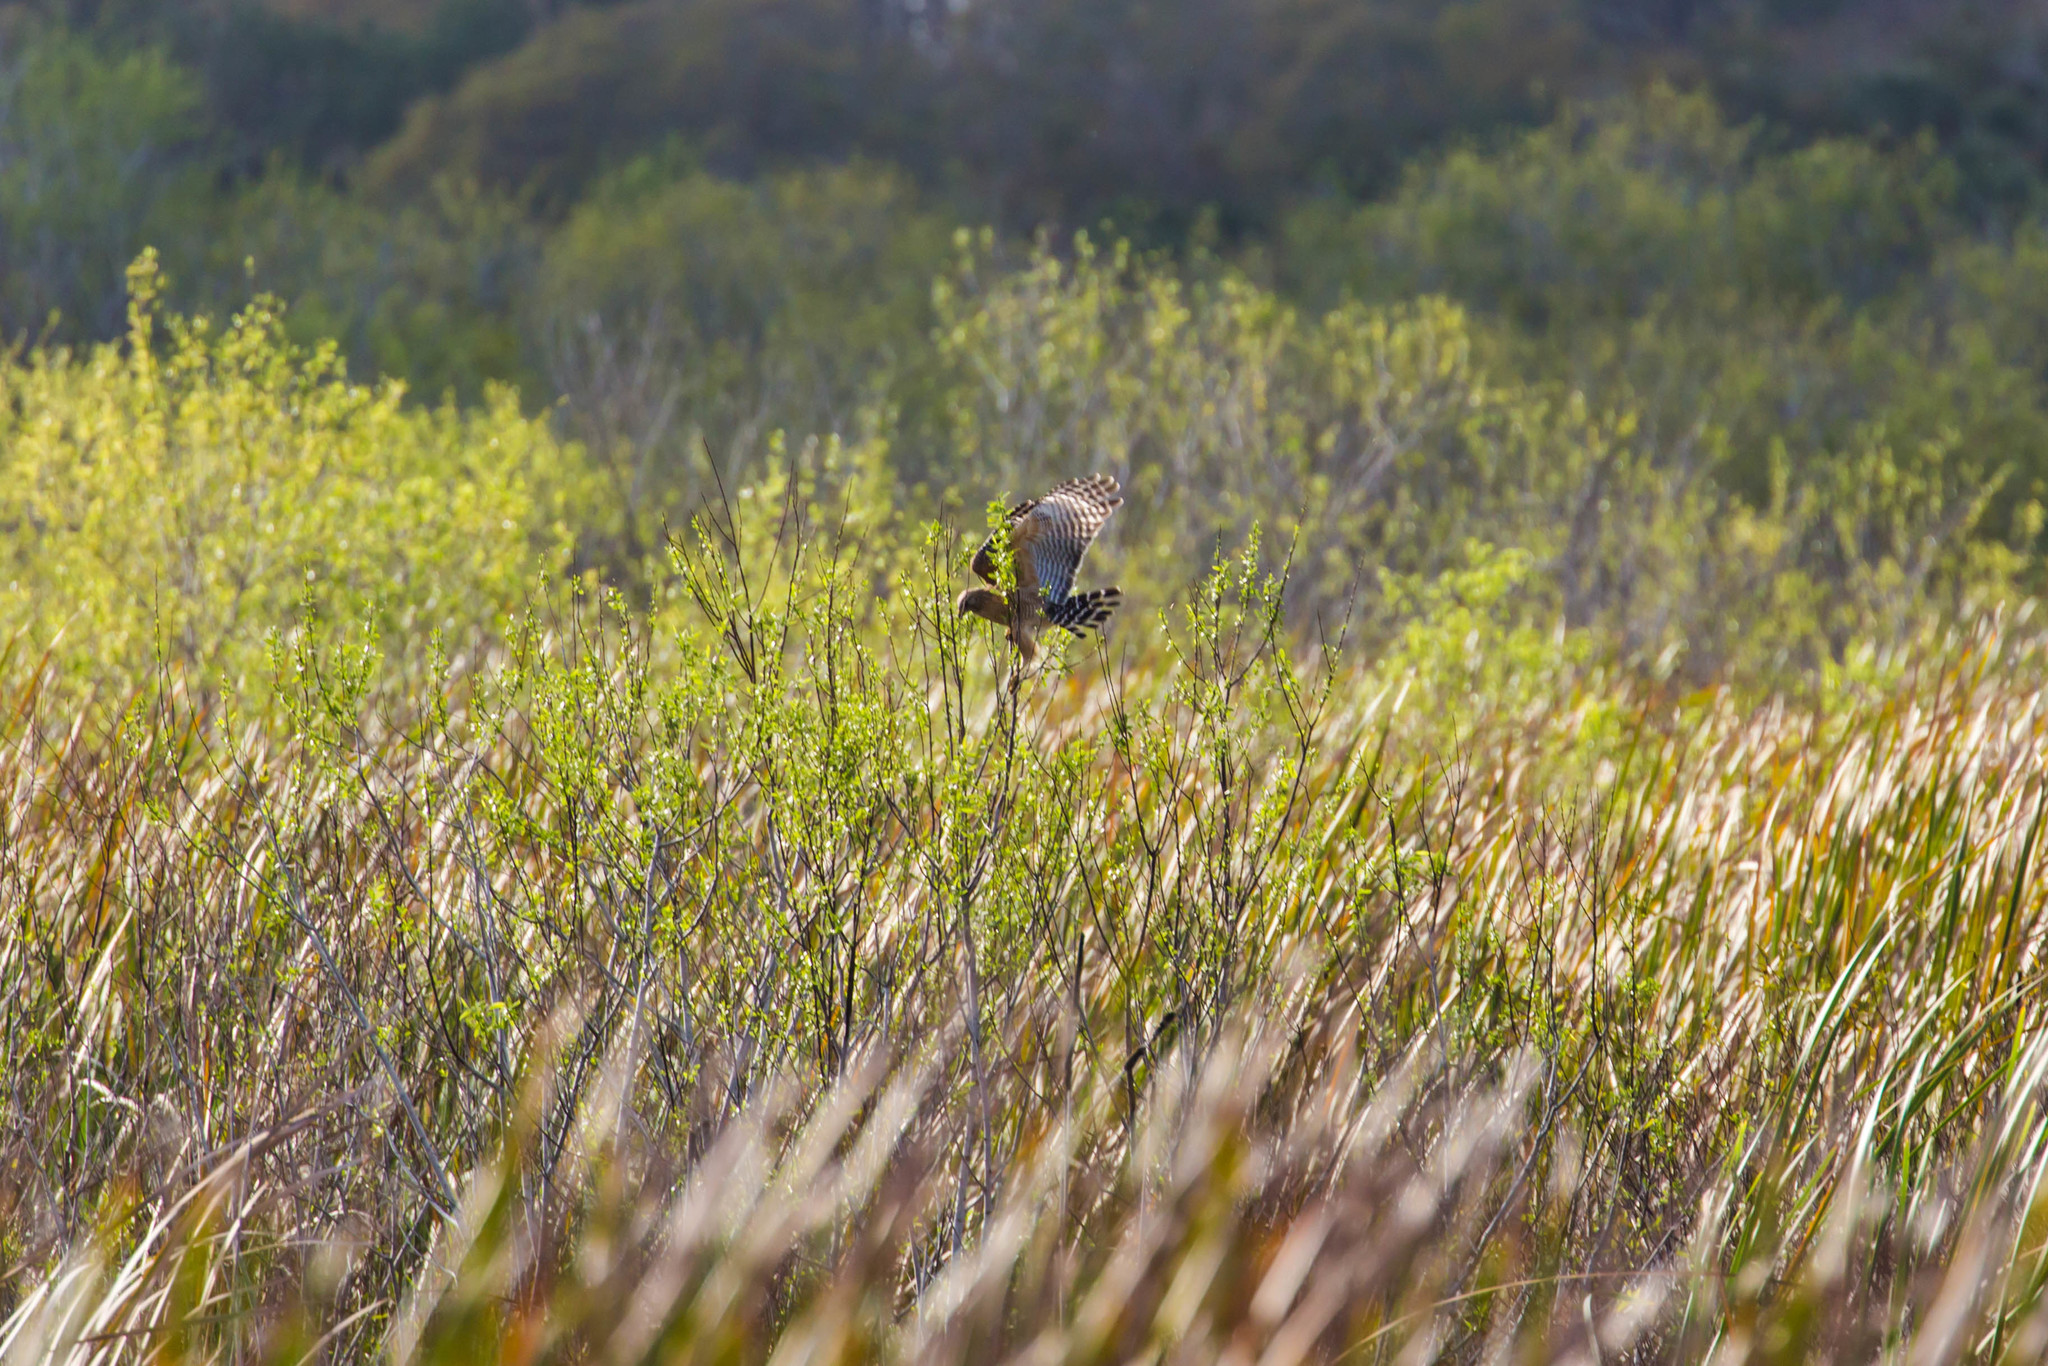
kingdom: Animalia
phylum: Chordata
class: Aves
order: Accipitriformes
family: Accipitridae
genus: Buteo
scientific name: Buteo lineatus
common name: Red-shouldered hawk
